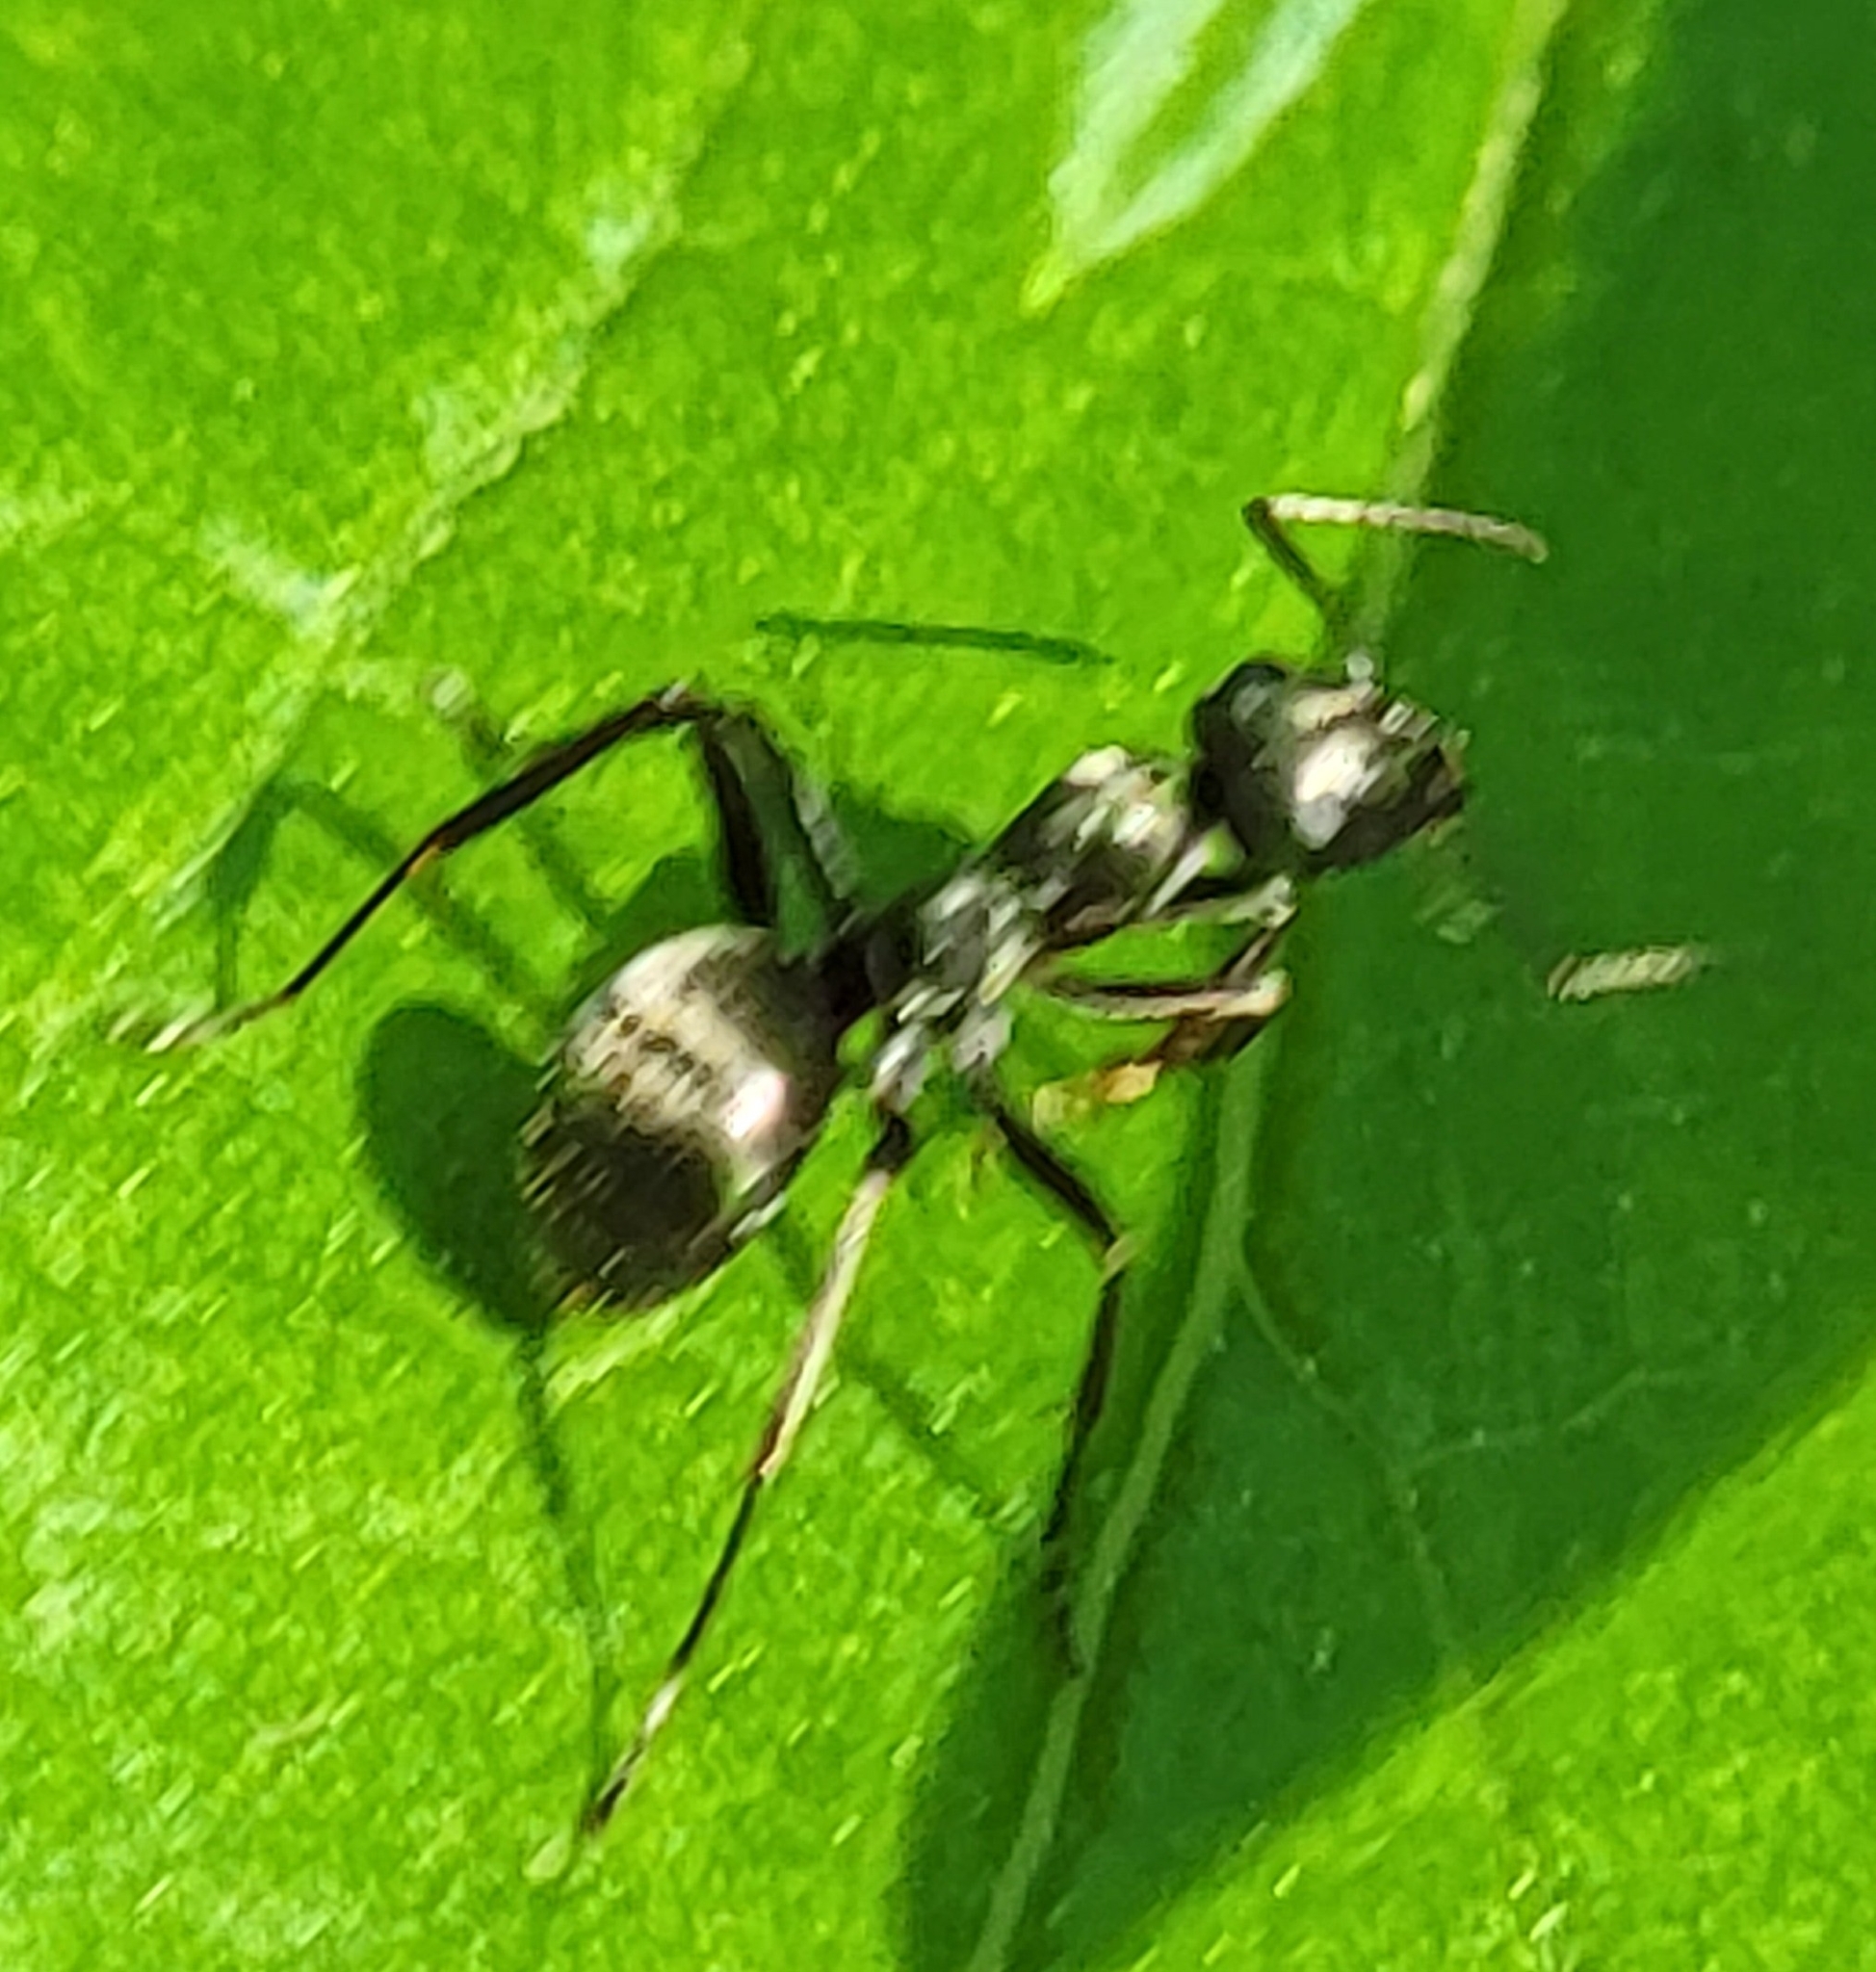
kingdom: Animalia
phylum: Arthropoda
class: Insecta
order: Hymenoptera
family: Formicidae
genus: Formica
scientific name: Formica
